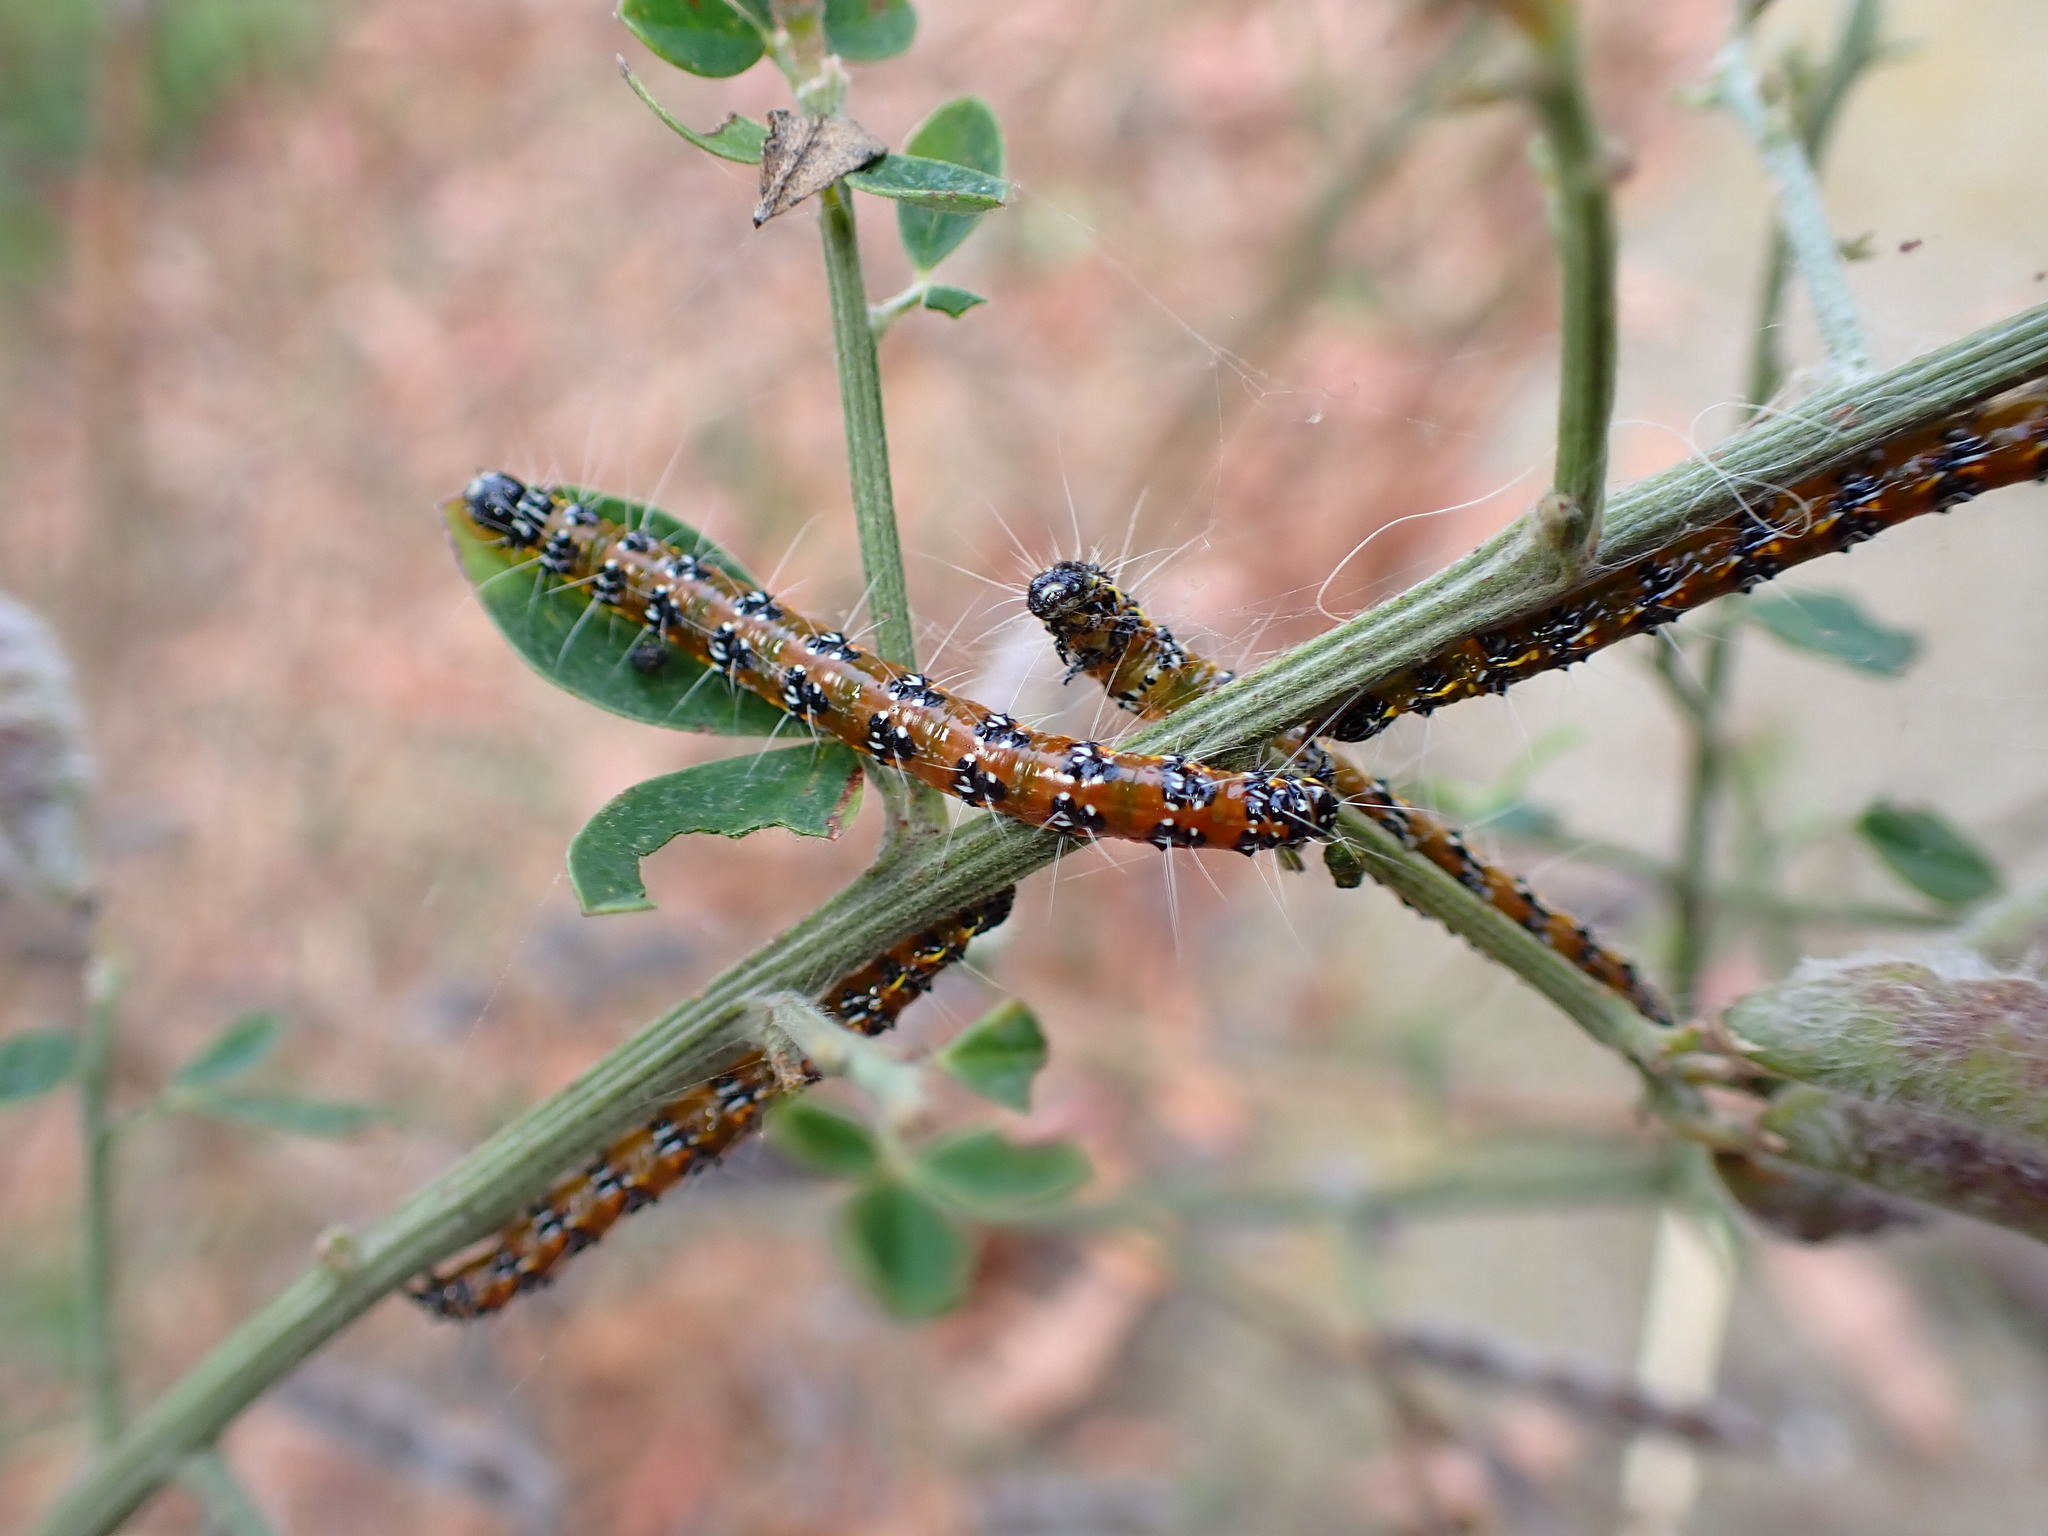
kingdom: Animalia
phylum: Arthropoda
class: Insecta
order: Lepidoptera
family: Crambidae
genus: Uresiphita
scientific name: Uresiphita reversalis
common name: Genista broom moth
